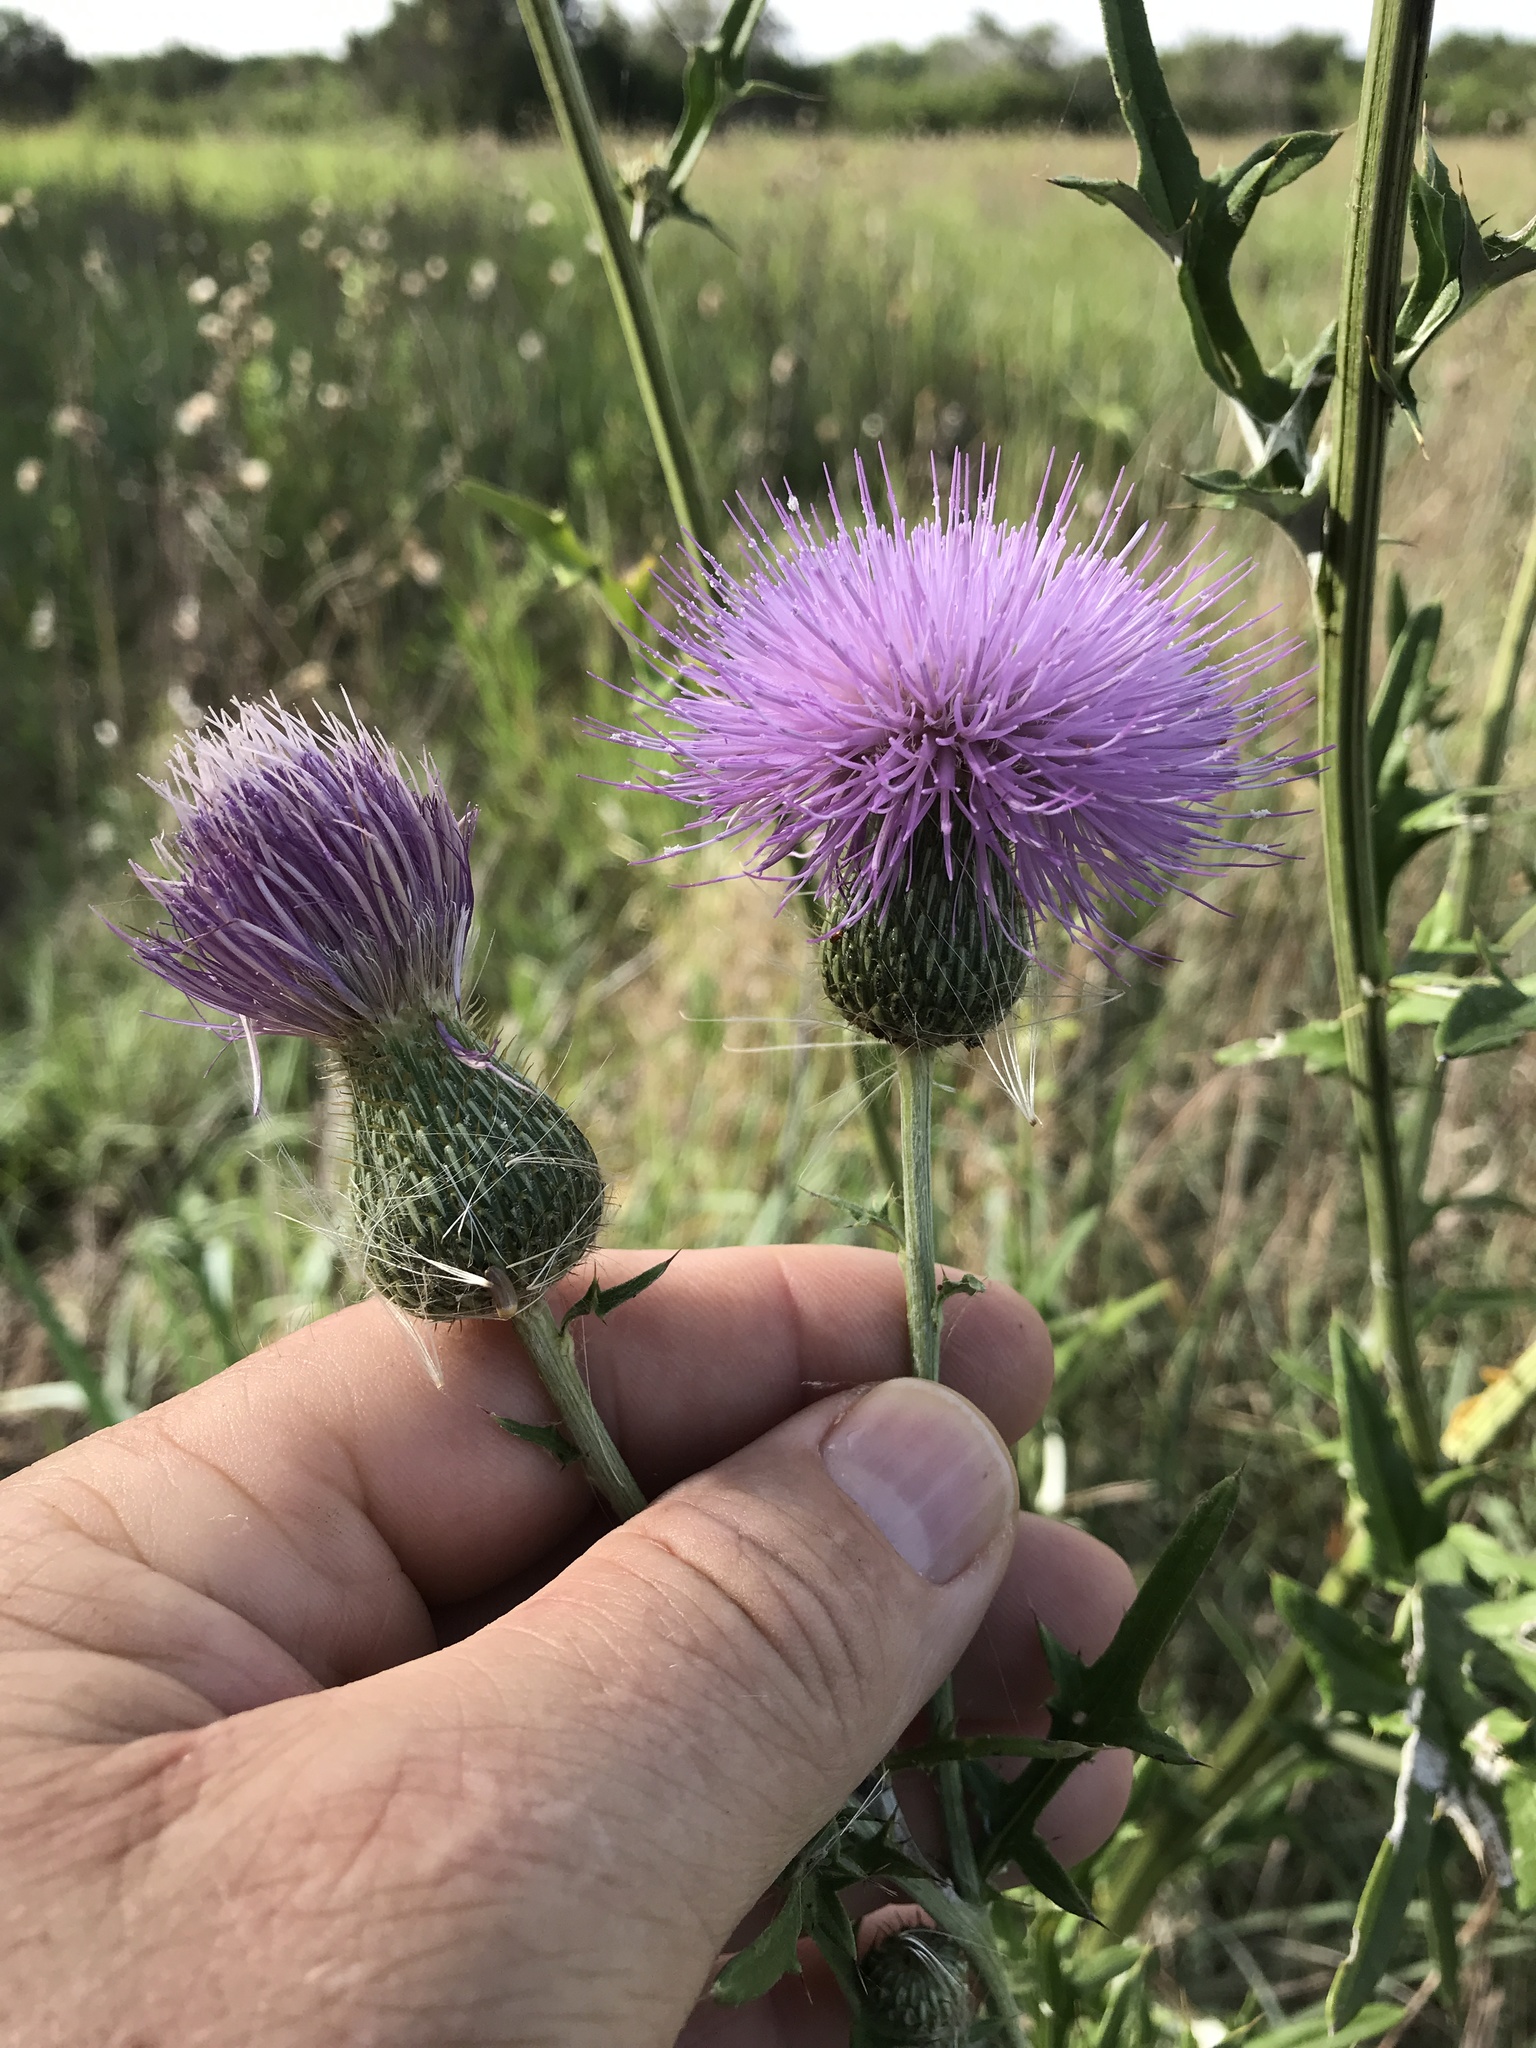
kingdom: Plantae
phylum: Tracheophyta
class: Magnoliopsida
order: Asterales
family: Asteraceae
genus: Cirsium
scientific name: Cirsium engelmannii
